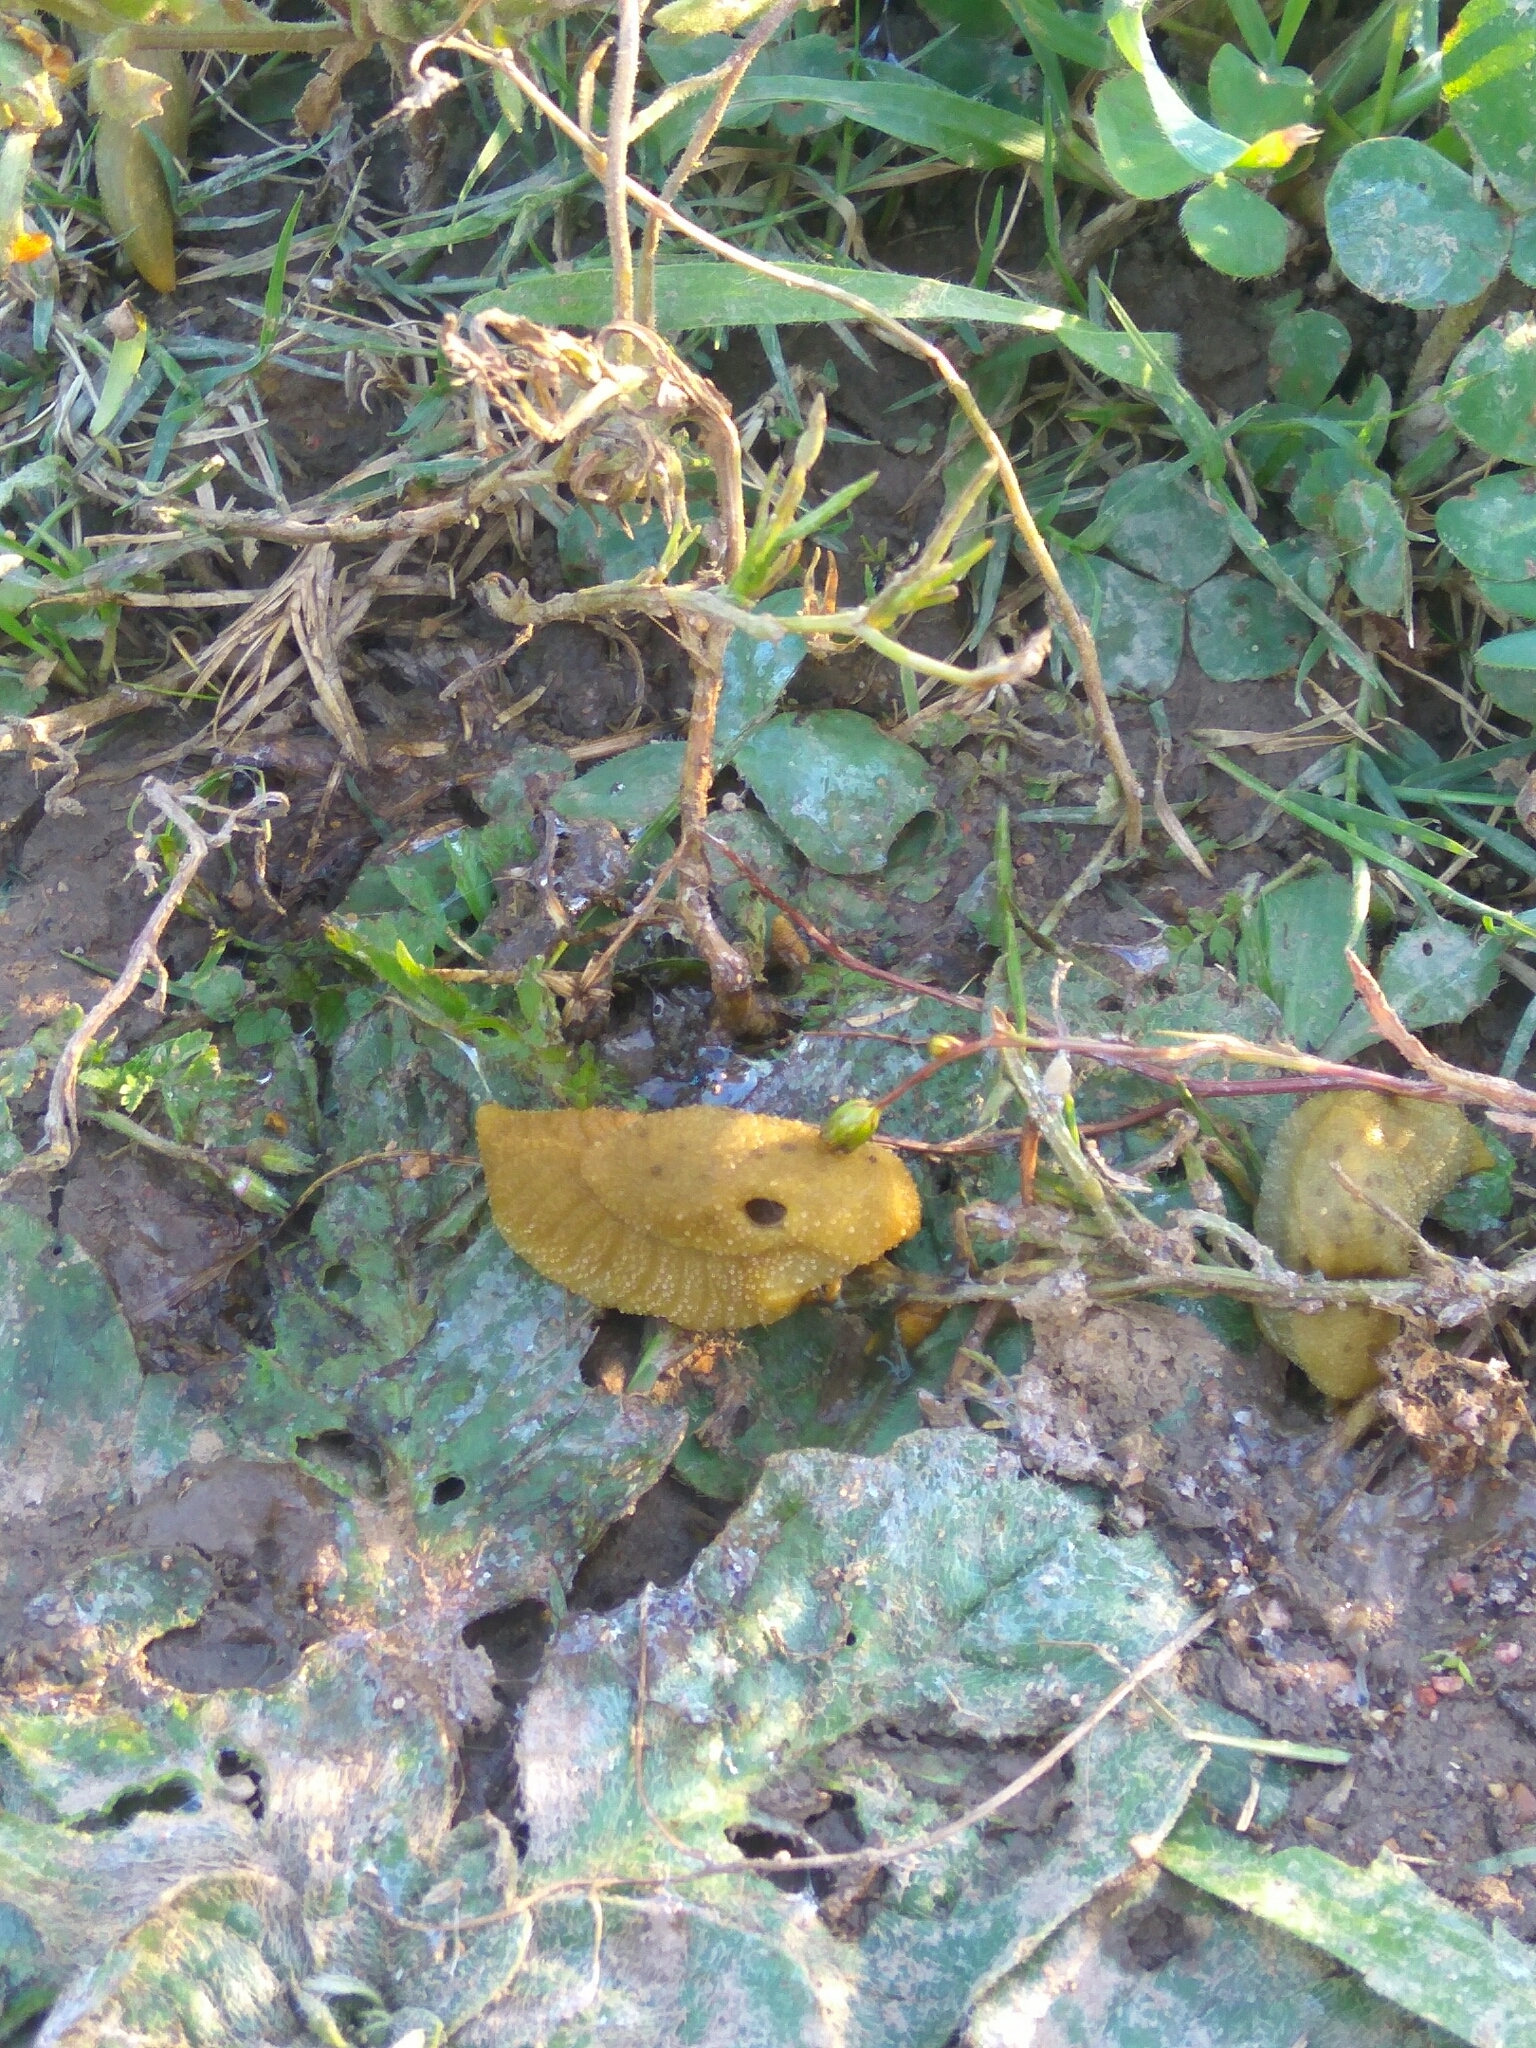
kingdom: Animalia
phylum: Mollusca
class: Gastropoda
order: Stylommatophora
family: Oopeltidae
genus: Oopelta
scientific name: Oopelta granulosa
